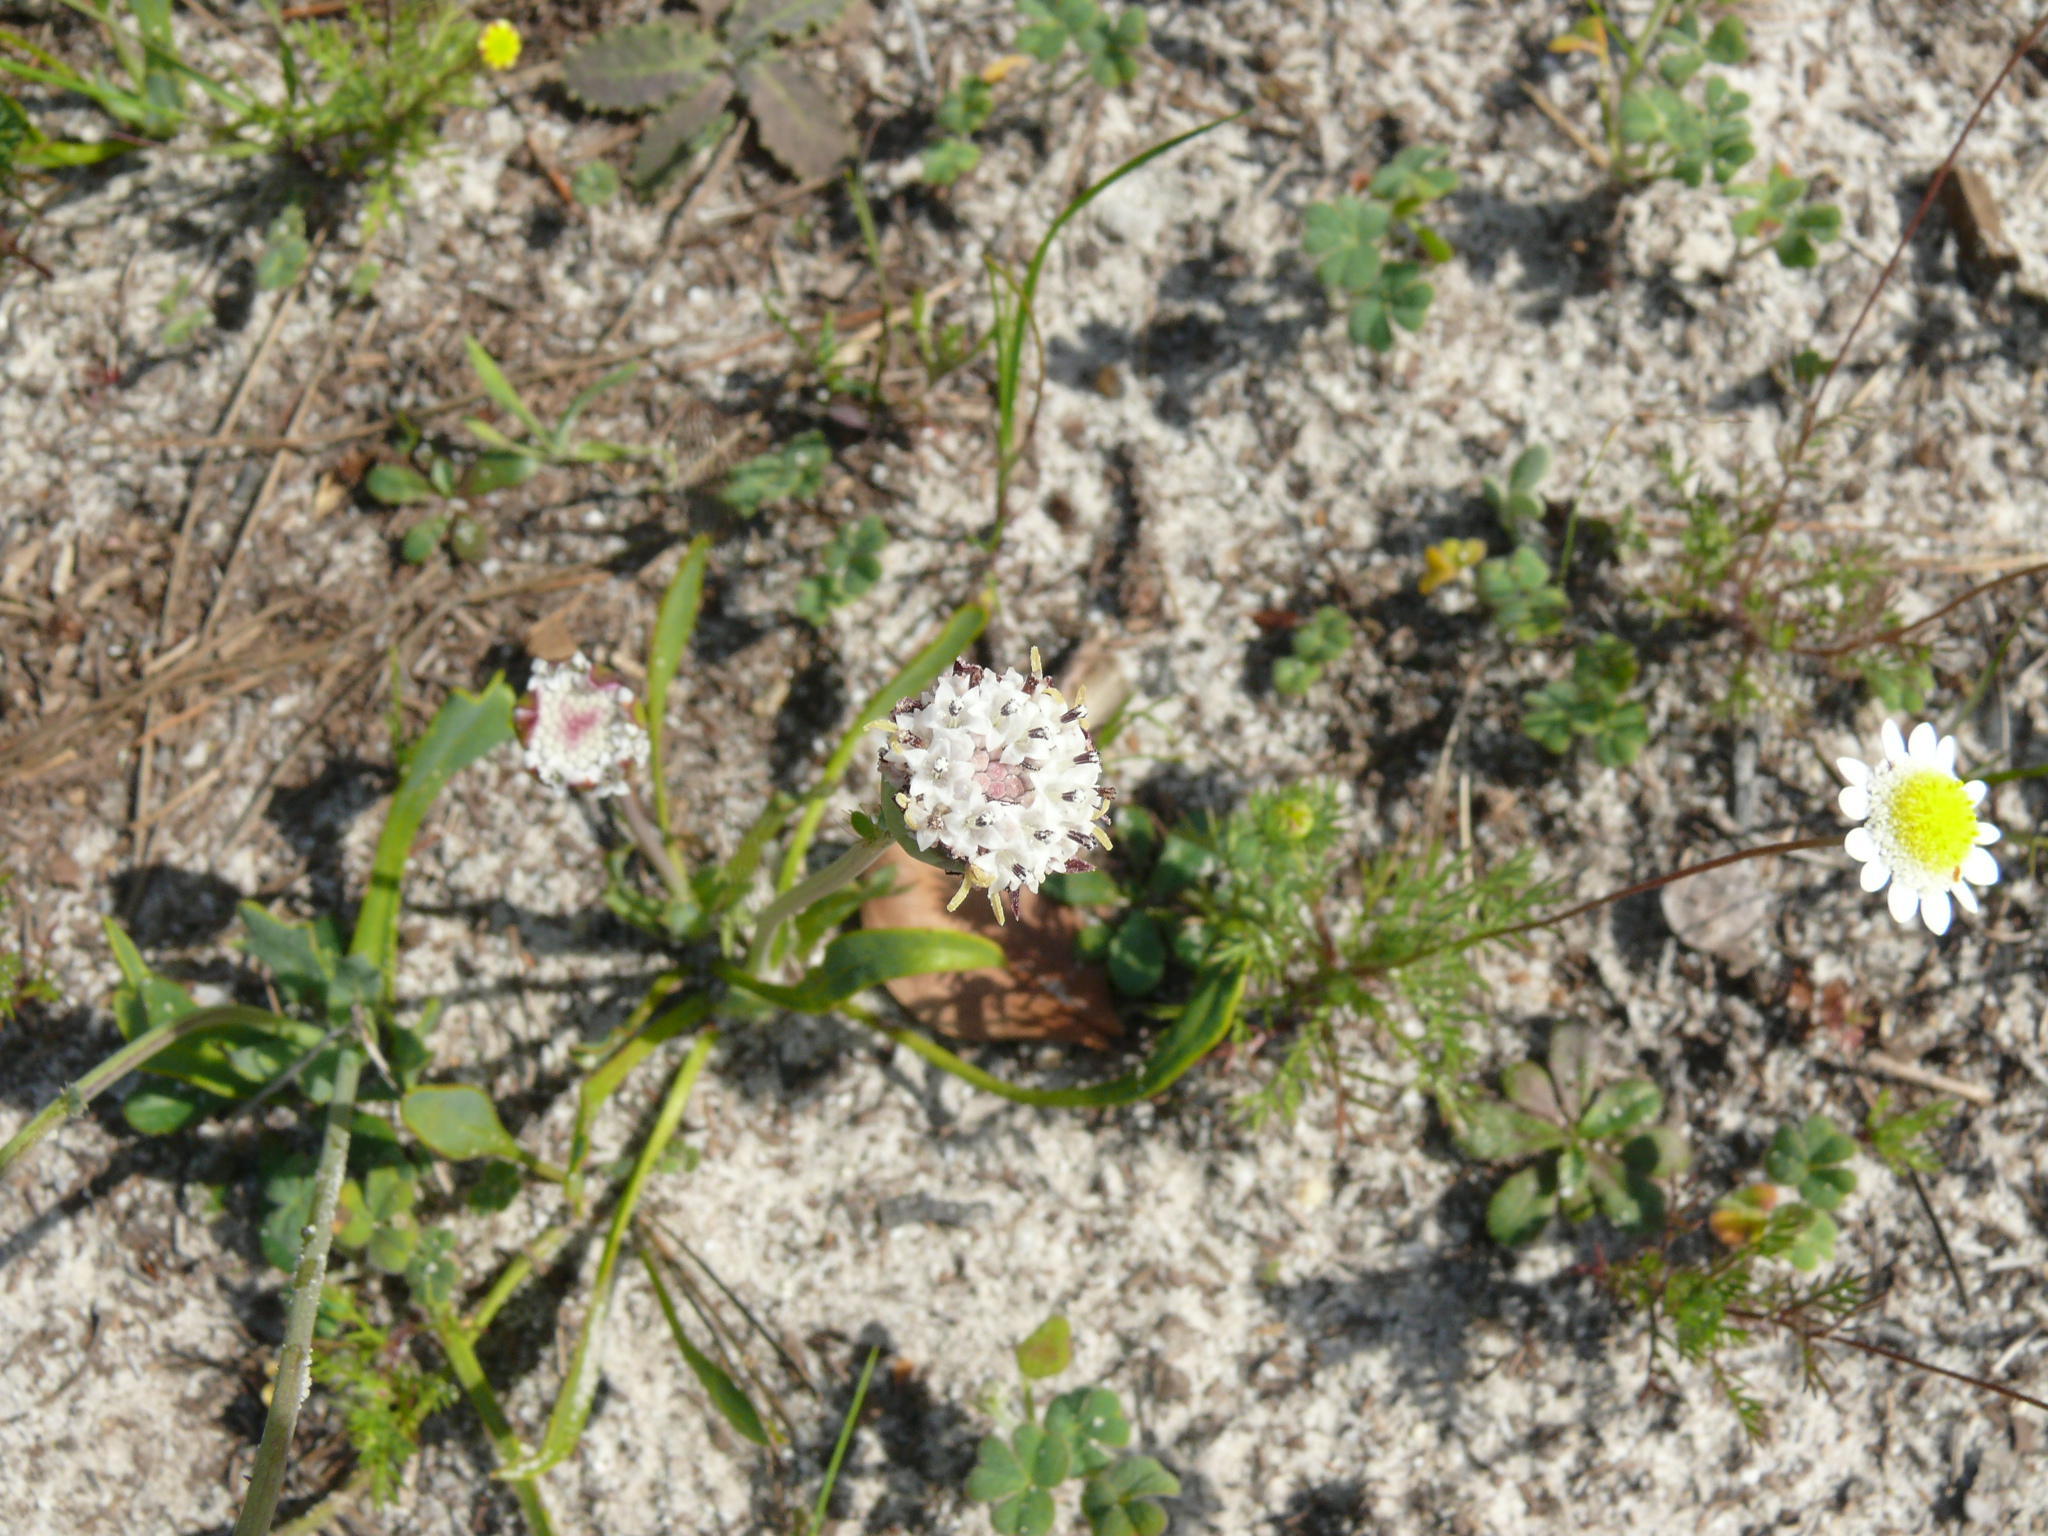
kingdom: Plantae
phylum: Tracheophyta
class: Magnoliopsida
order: Asterales
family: Asteraceae
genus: Cotula
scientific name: Cotula turbinata
